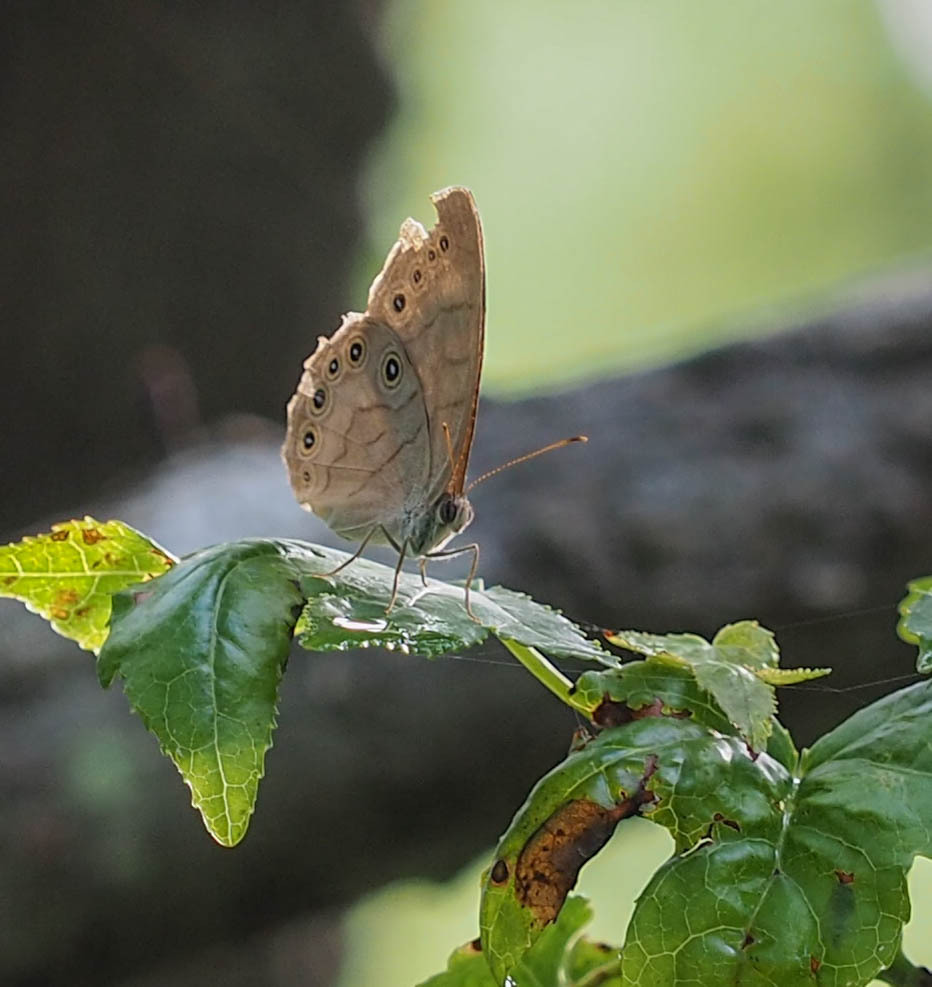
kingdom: Animalia
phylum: Arthropoda
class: Insecta
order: Lepidoptera
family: Nymphalidae
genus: Lethe
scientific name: Lethe eurydice
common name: Eyed brown
